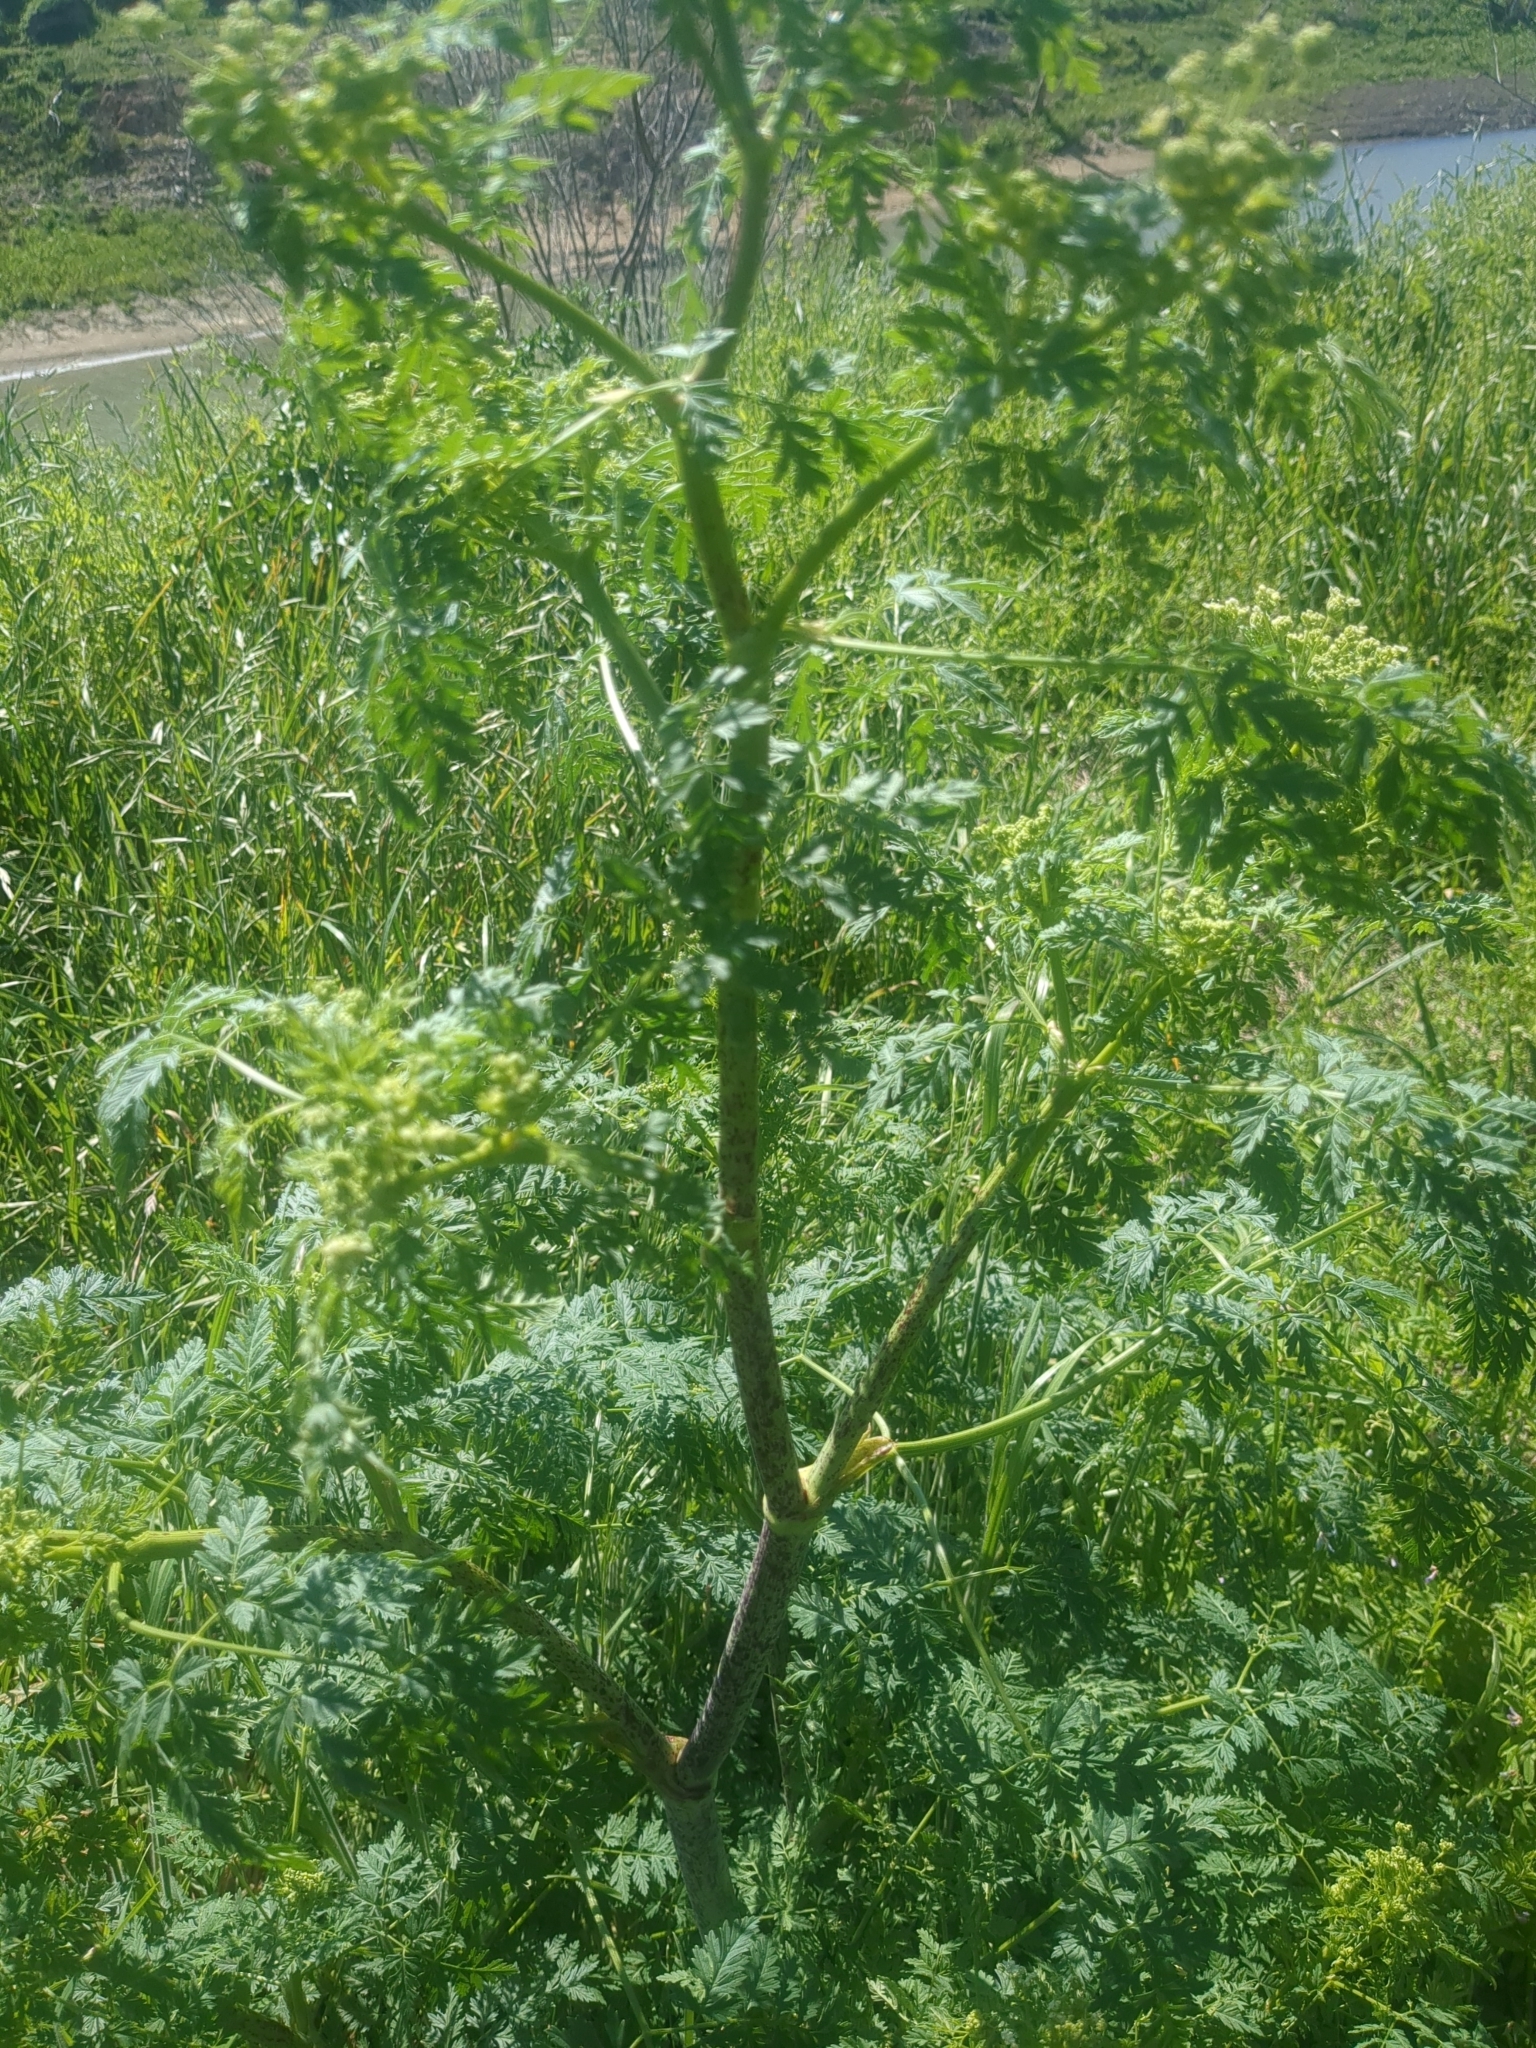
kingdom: Plantae
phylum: Tracheophyta
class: Magnoliopsida
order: Apiales
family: Apiaceae
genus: Conium
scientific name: Conium maculatum
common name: Hemlock
